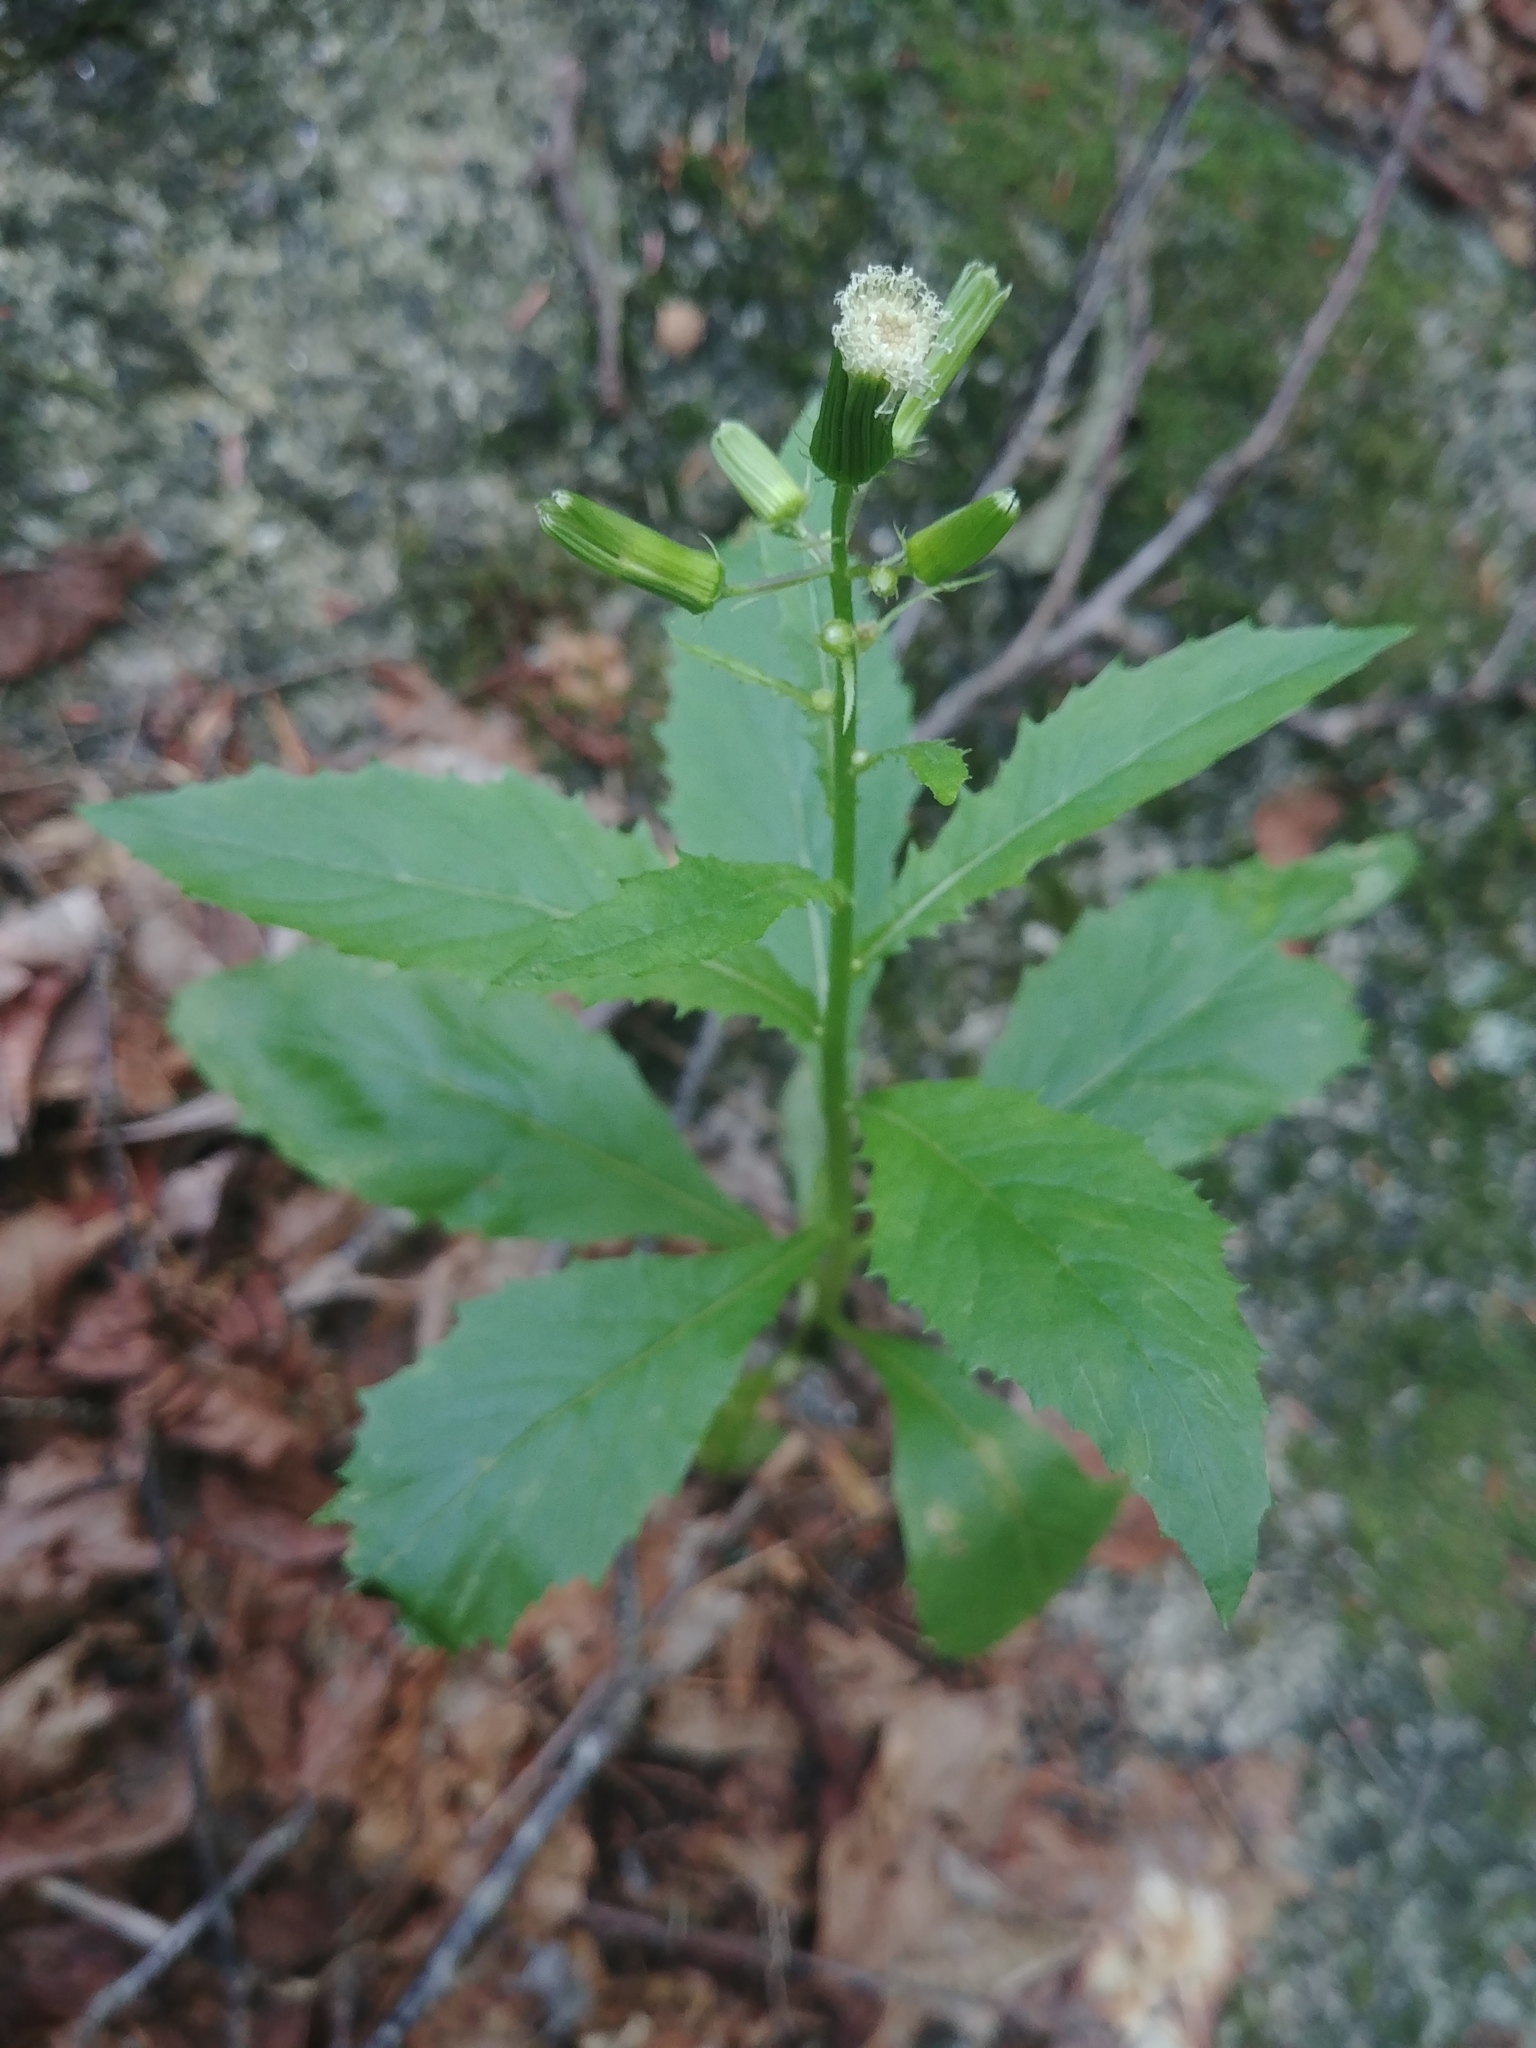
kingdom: Plantae
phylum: Tracheophyta
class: Magnoliopsida
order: Asterales
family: Asteraceae
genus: Erechtites
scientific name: Erechtites hieraciifolius
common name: American burnweed
